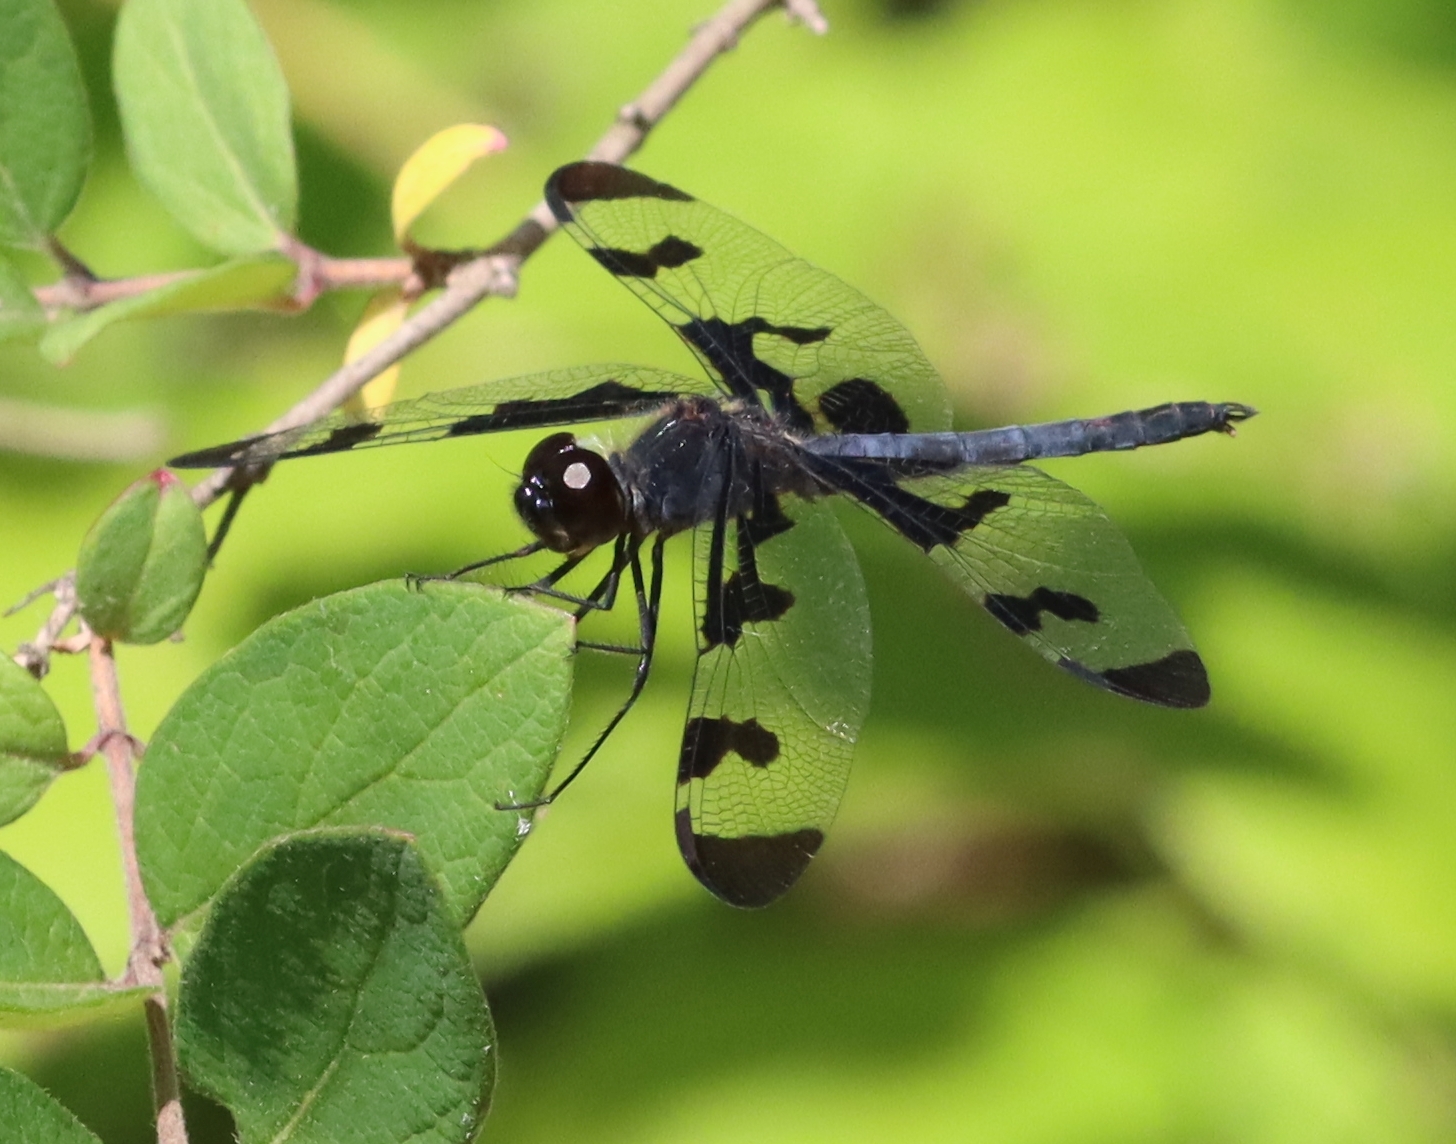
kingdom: Animalia
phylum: Arthropoda
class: Insecta
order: Odonata
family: Libellulidae
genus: Celithemis
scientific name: Celithemis fasciata
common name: Banded pennant
